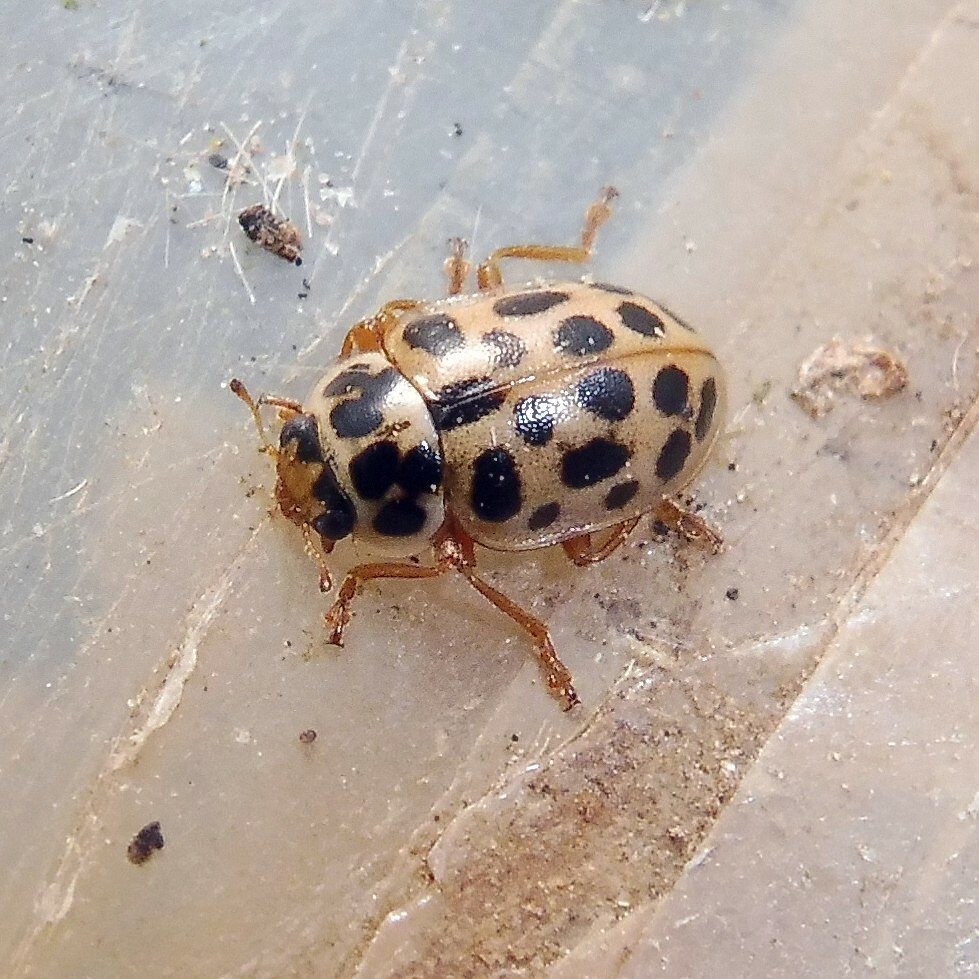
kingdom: Animalia
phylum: Arthropoda
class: Insecta
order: Coleoptera
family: Coccinellidae
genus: Anisosticta
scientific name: Anisosticta novemdecimpunctata
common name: Water ladybird
